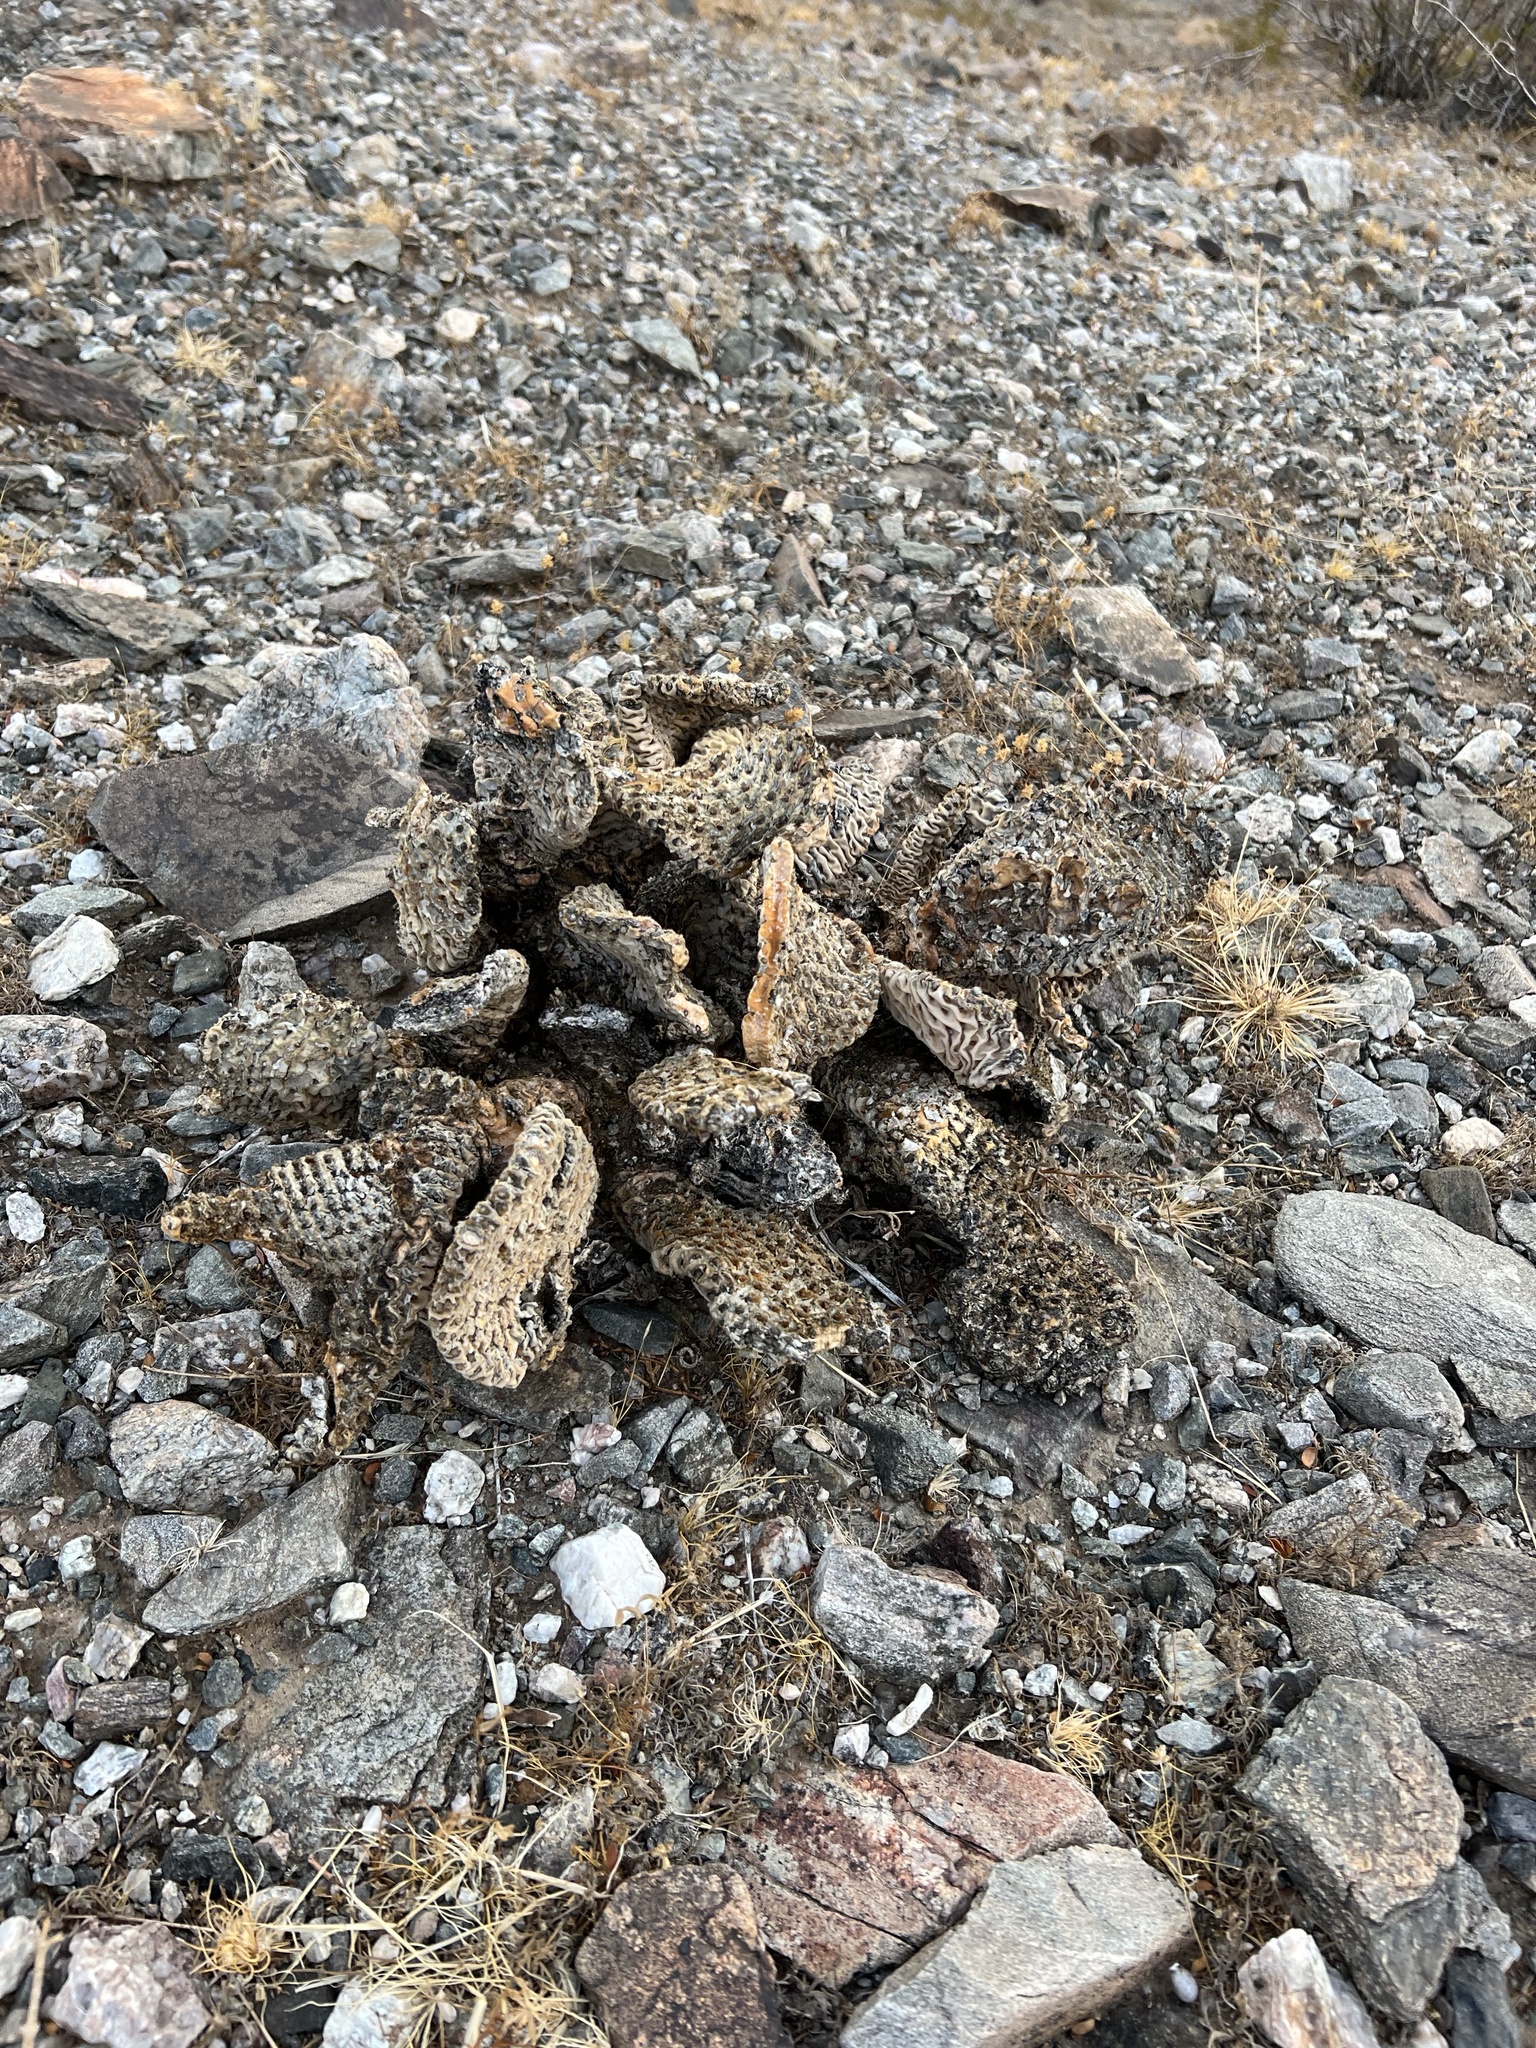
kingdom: Plantae
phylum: Tracheophyta
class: Magnoliopsida
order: Caryophyllales
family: Cactaceae
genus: Opuntia
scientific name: Opuntia basilaris
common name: Beavertail prickly-pear
